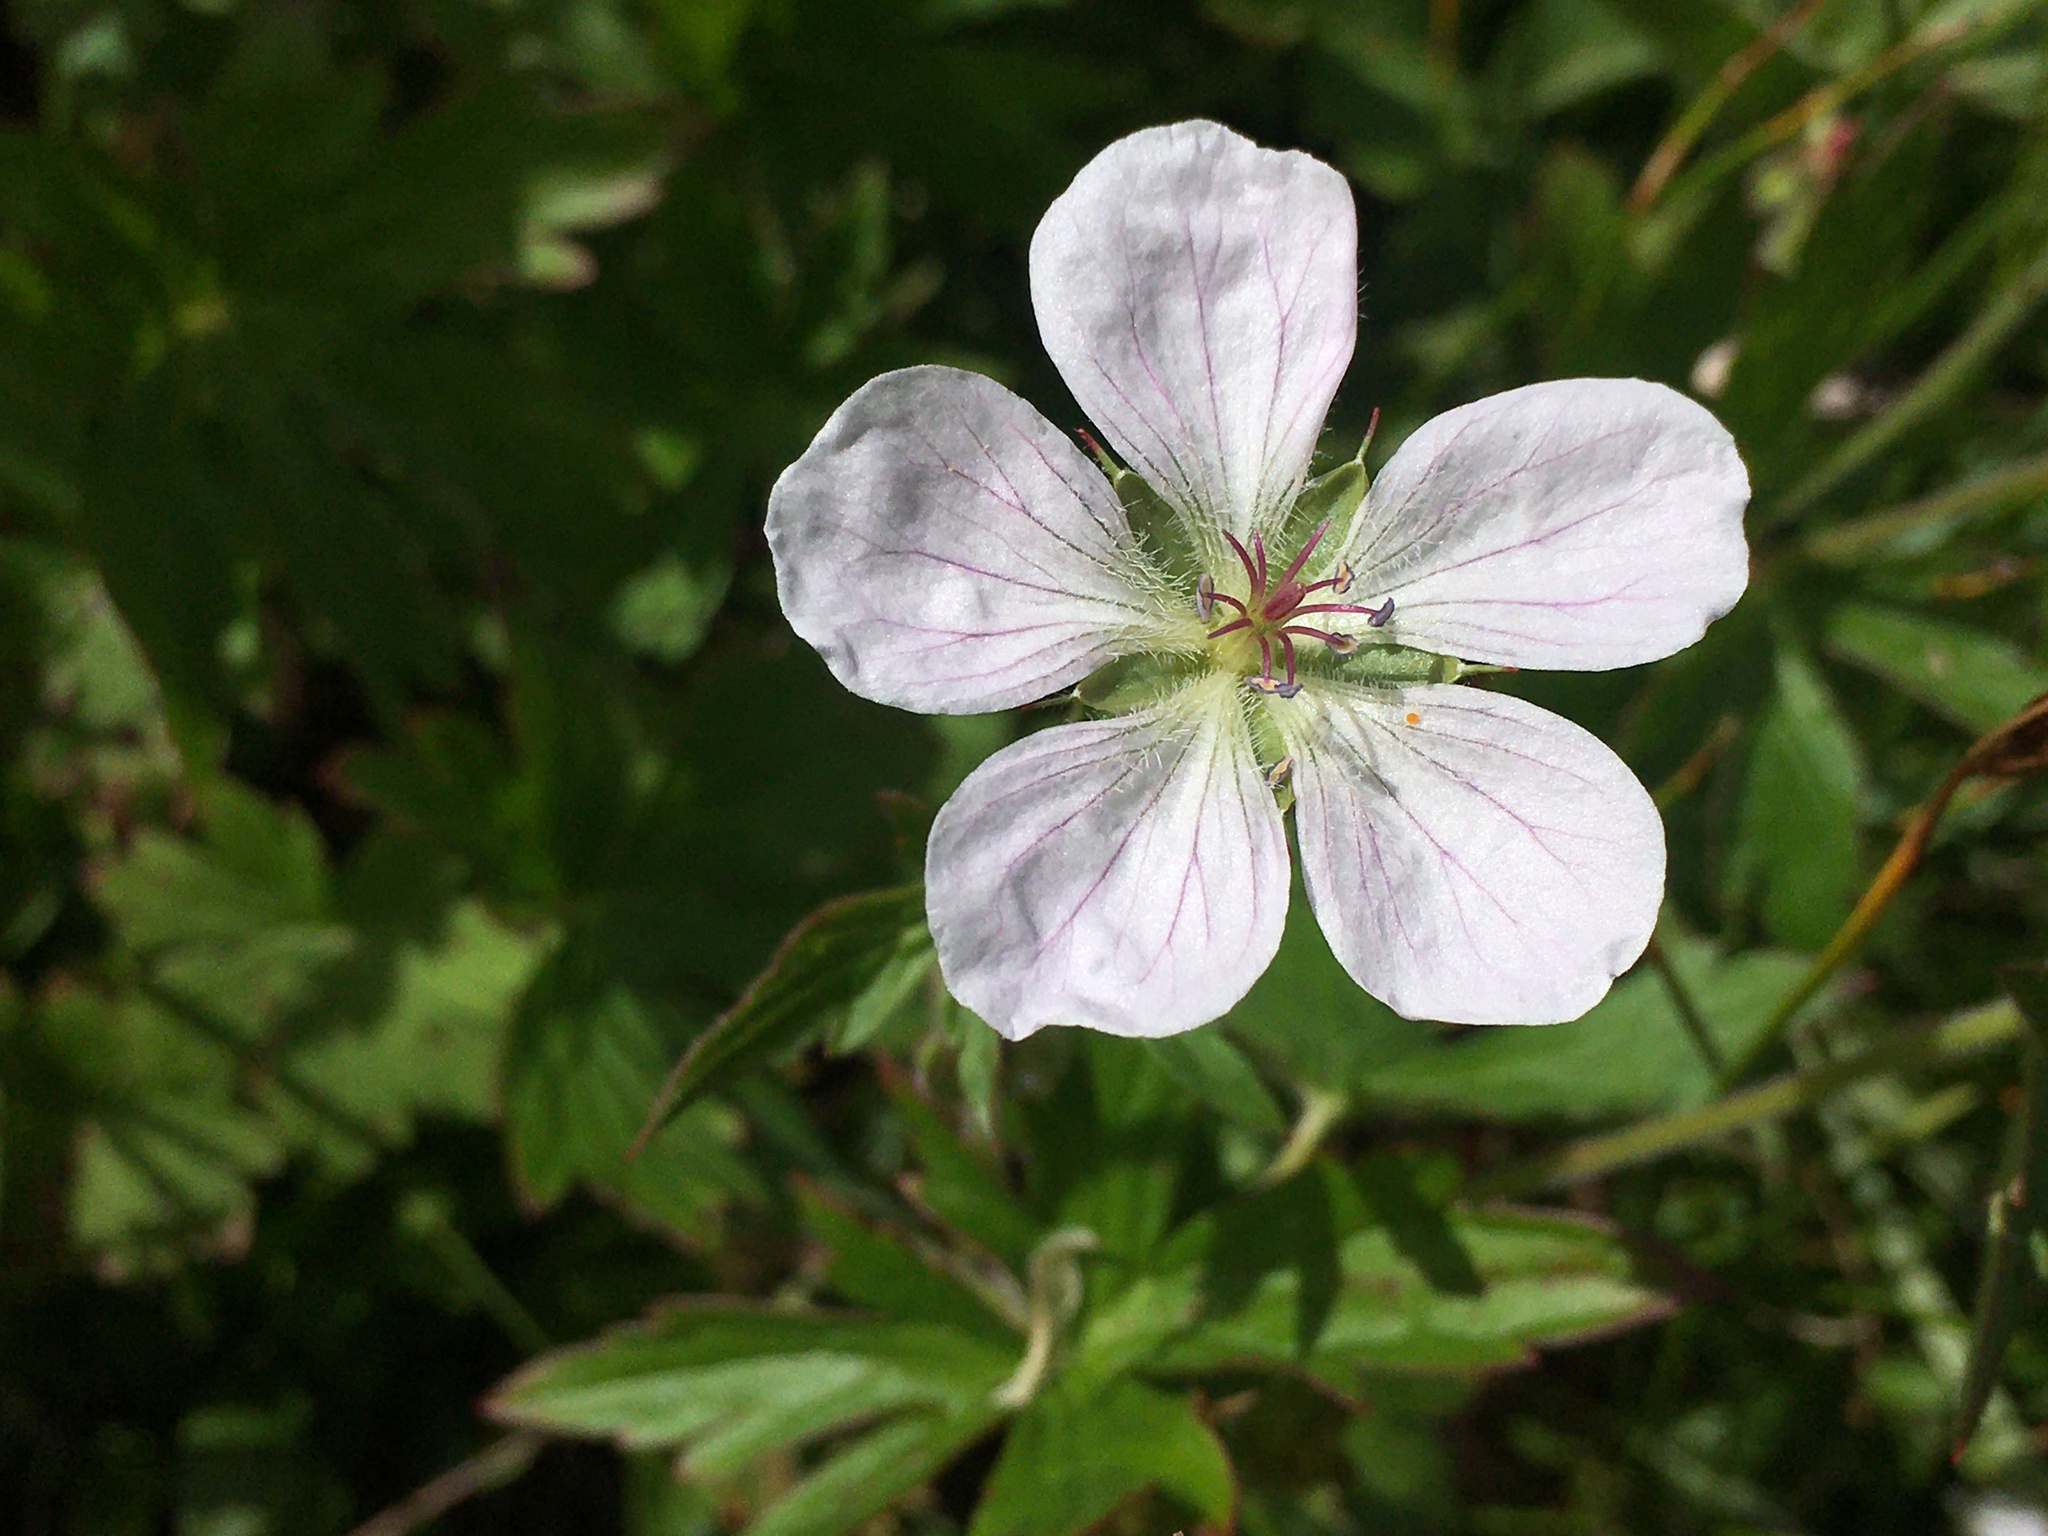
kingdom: Plantae
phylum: Tracheophyta
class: Magnoliopsida
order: Geraniales
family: Geraniaceae
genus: Geranium
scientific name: Geranium richardsonii
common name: Richardson's crane's-bill
